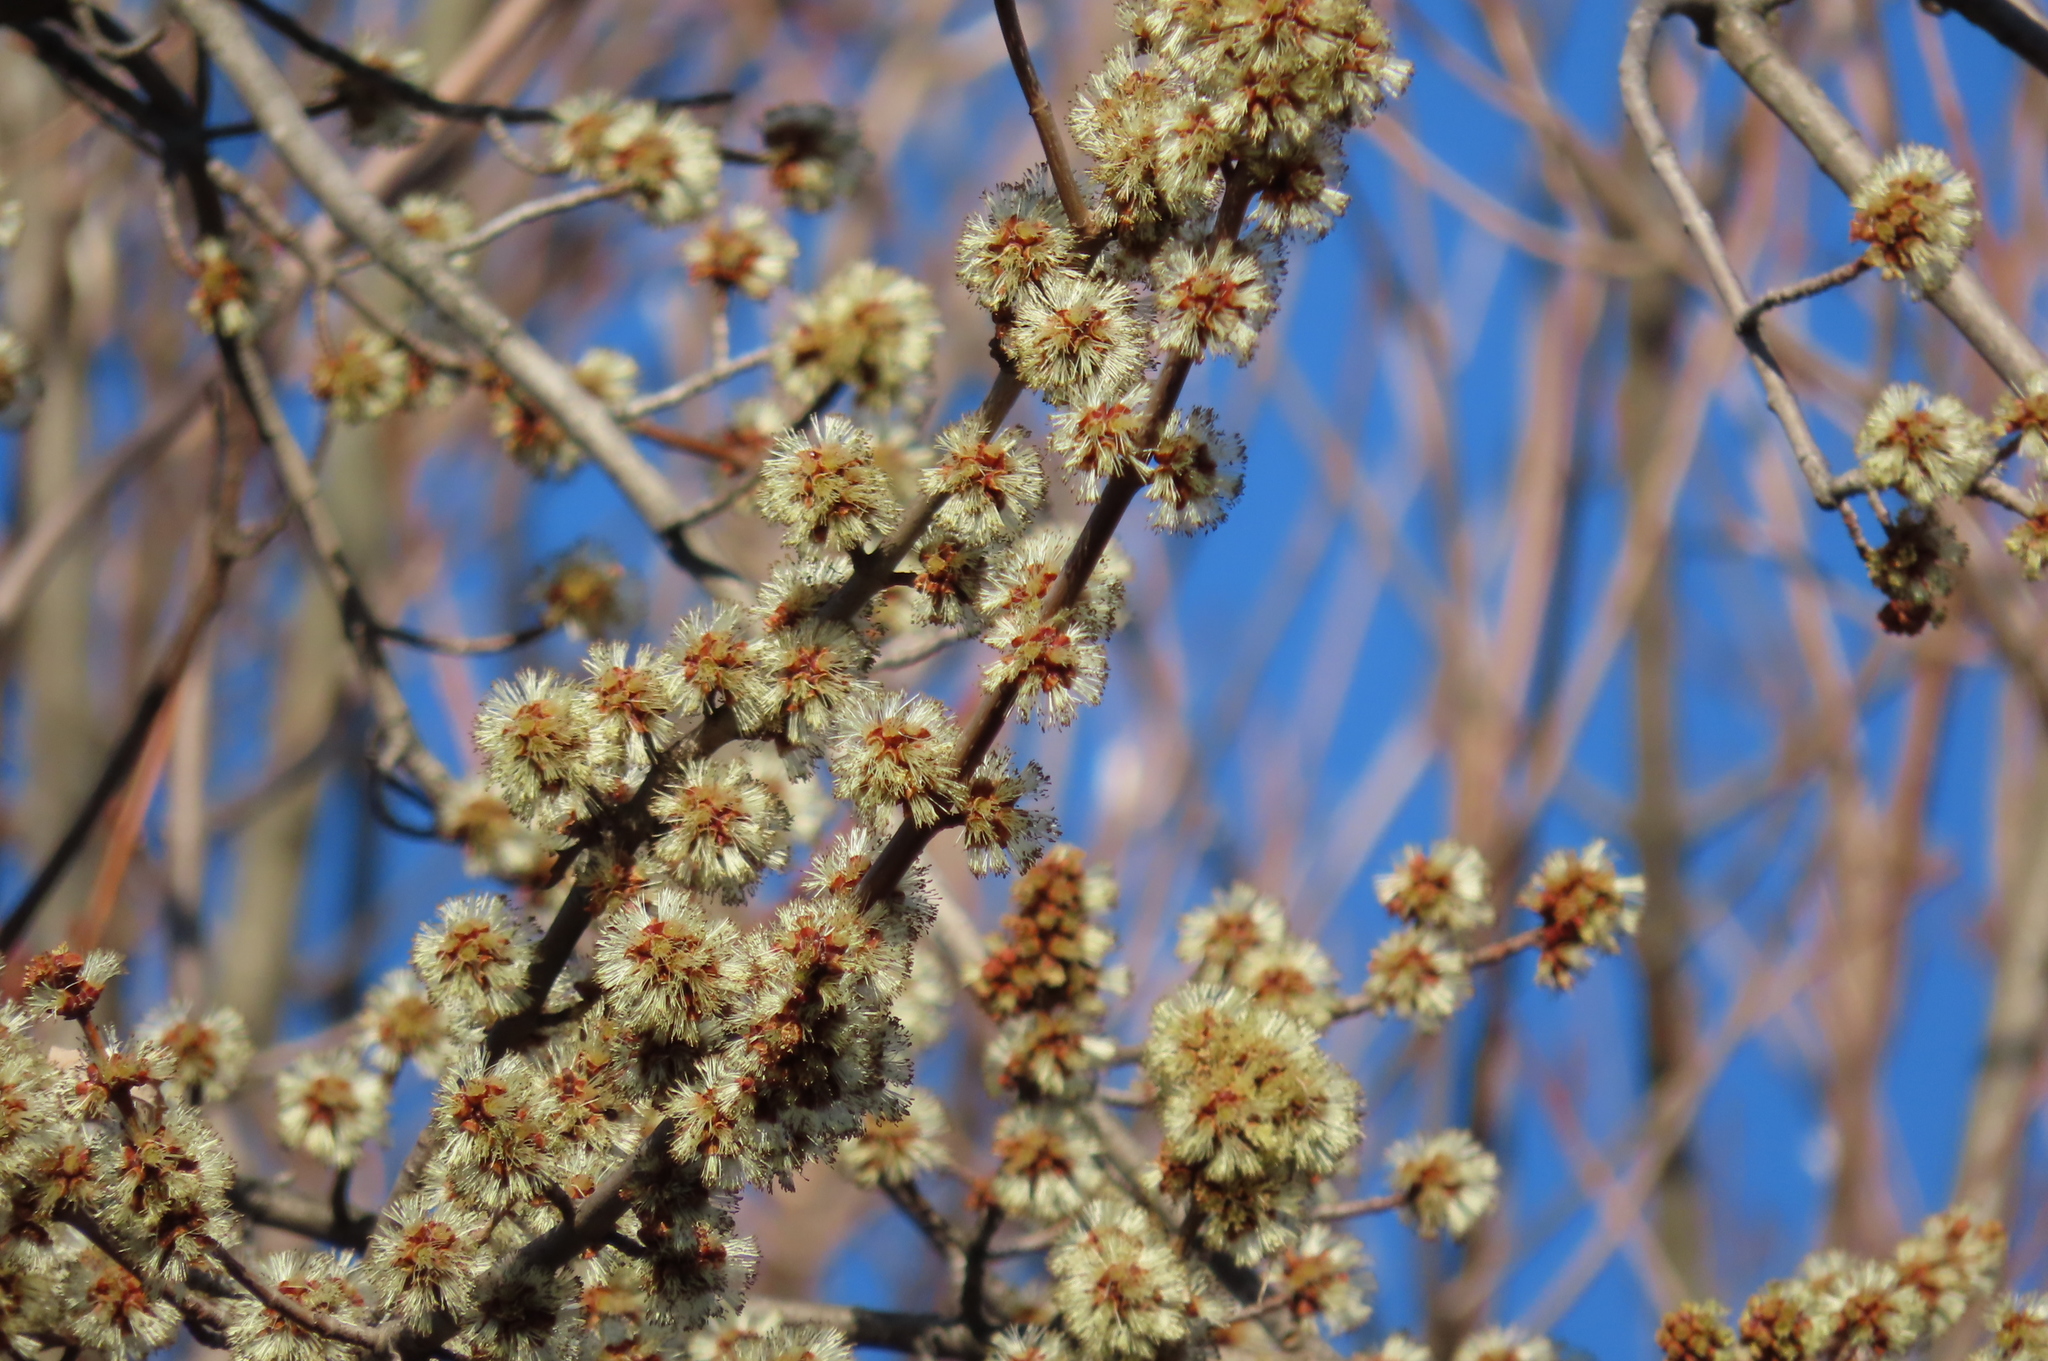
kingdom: Plantae
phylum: Tracheophyta
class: Magnoliopsida
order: Sapindales
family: Sapindaceae
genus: Acer
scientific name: Acer saccharinum
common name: Silver maple
